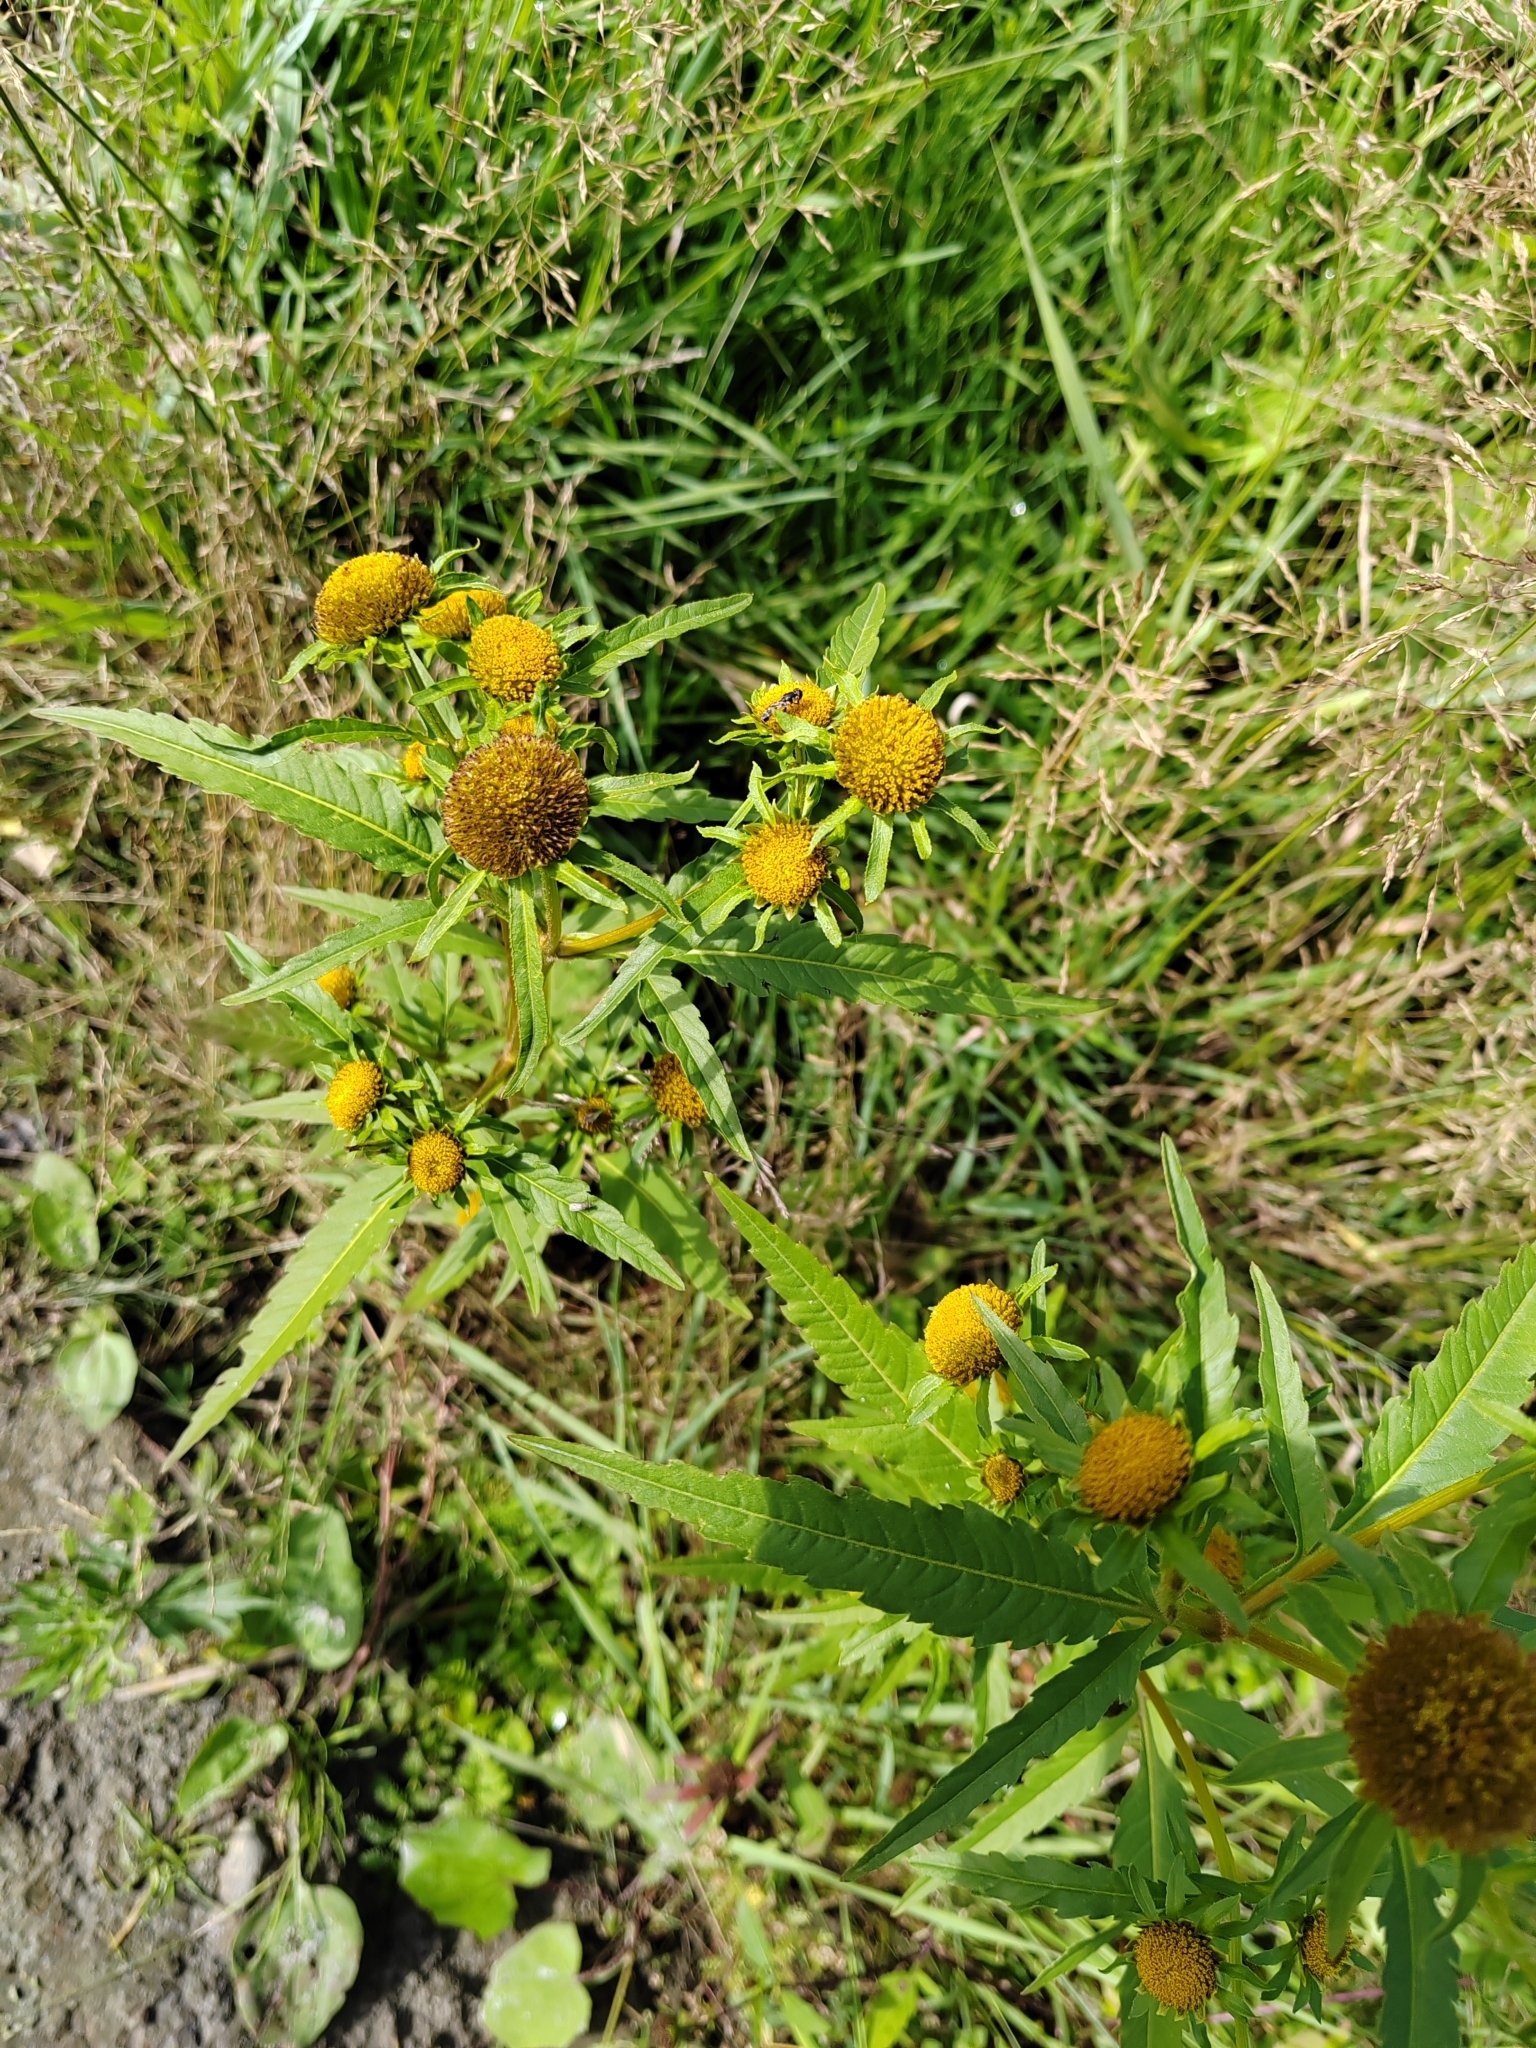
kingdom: Plantae
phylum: Tracheophyta
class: Magnoliopsida
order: Asterales
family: Asteraceae
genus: Bidens
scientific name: Bidens radiata
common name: Radiating bur-marigold
